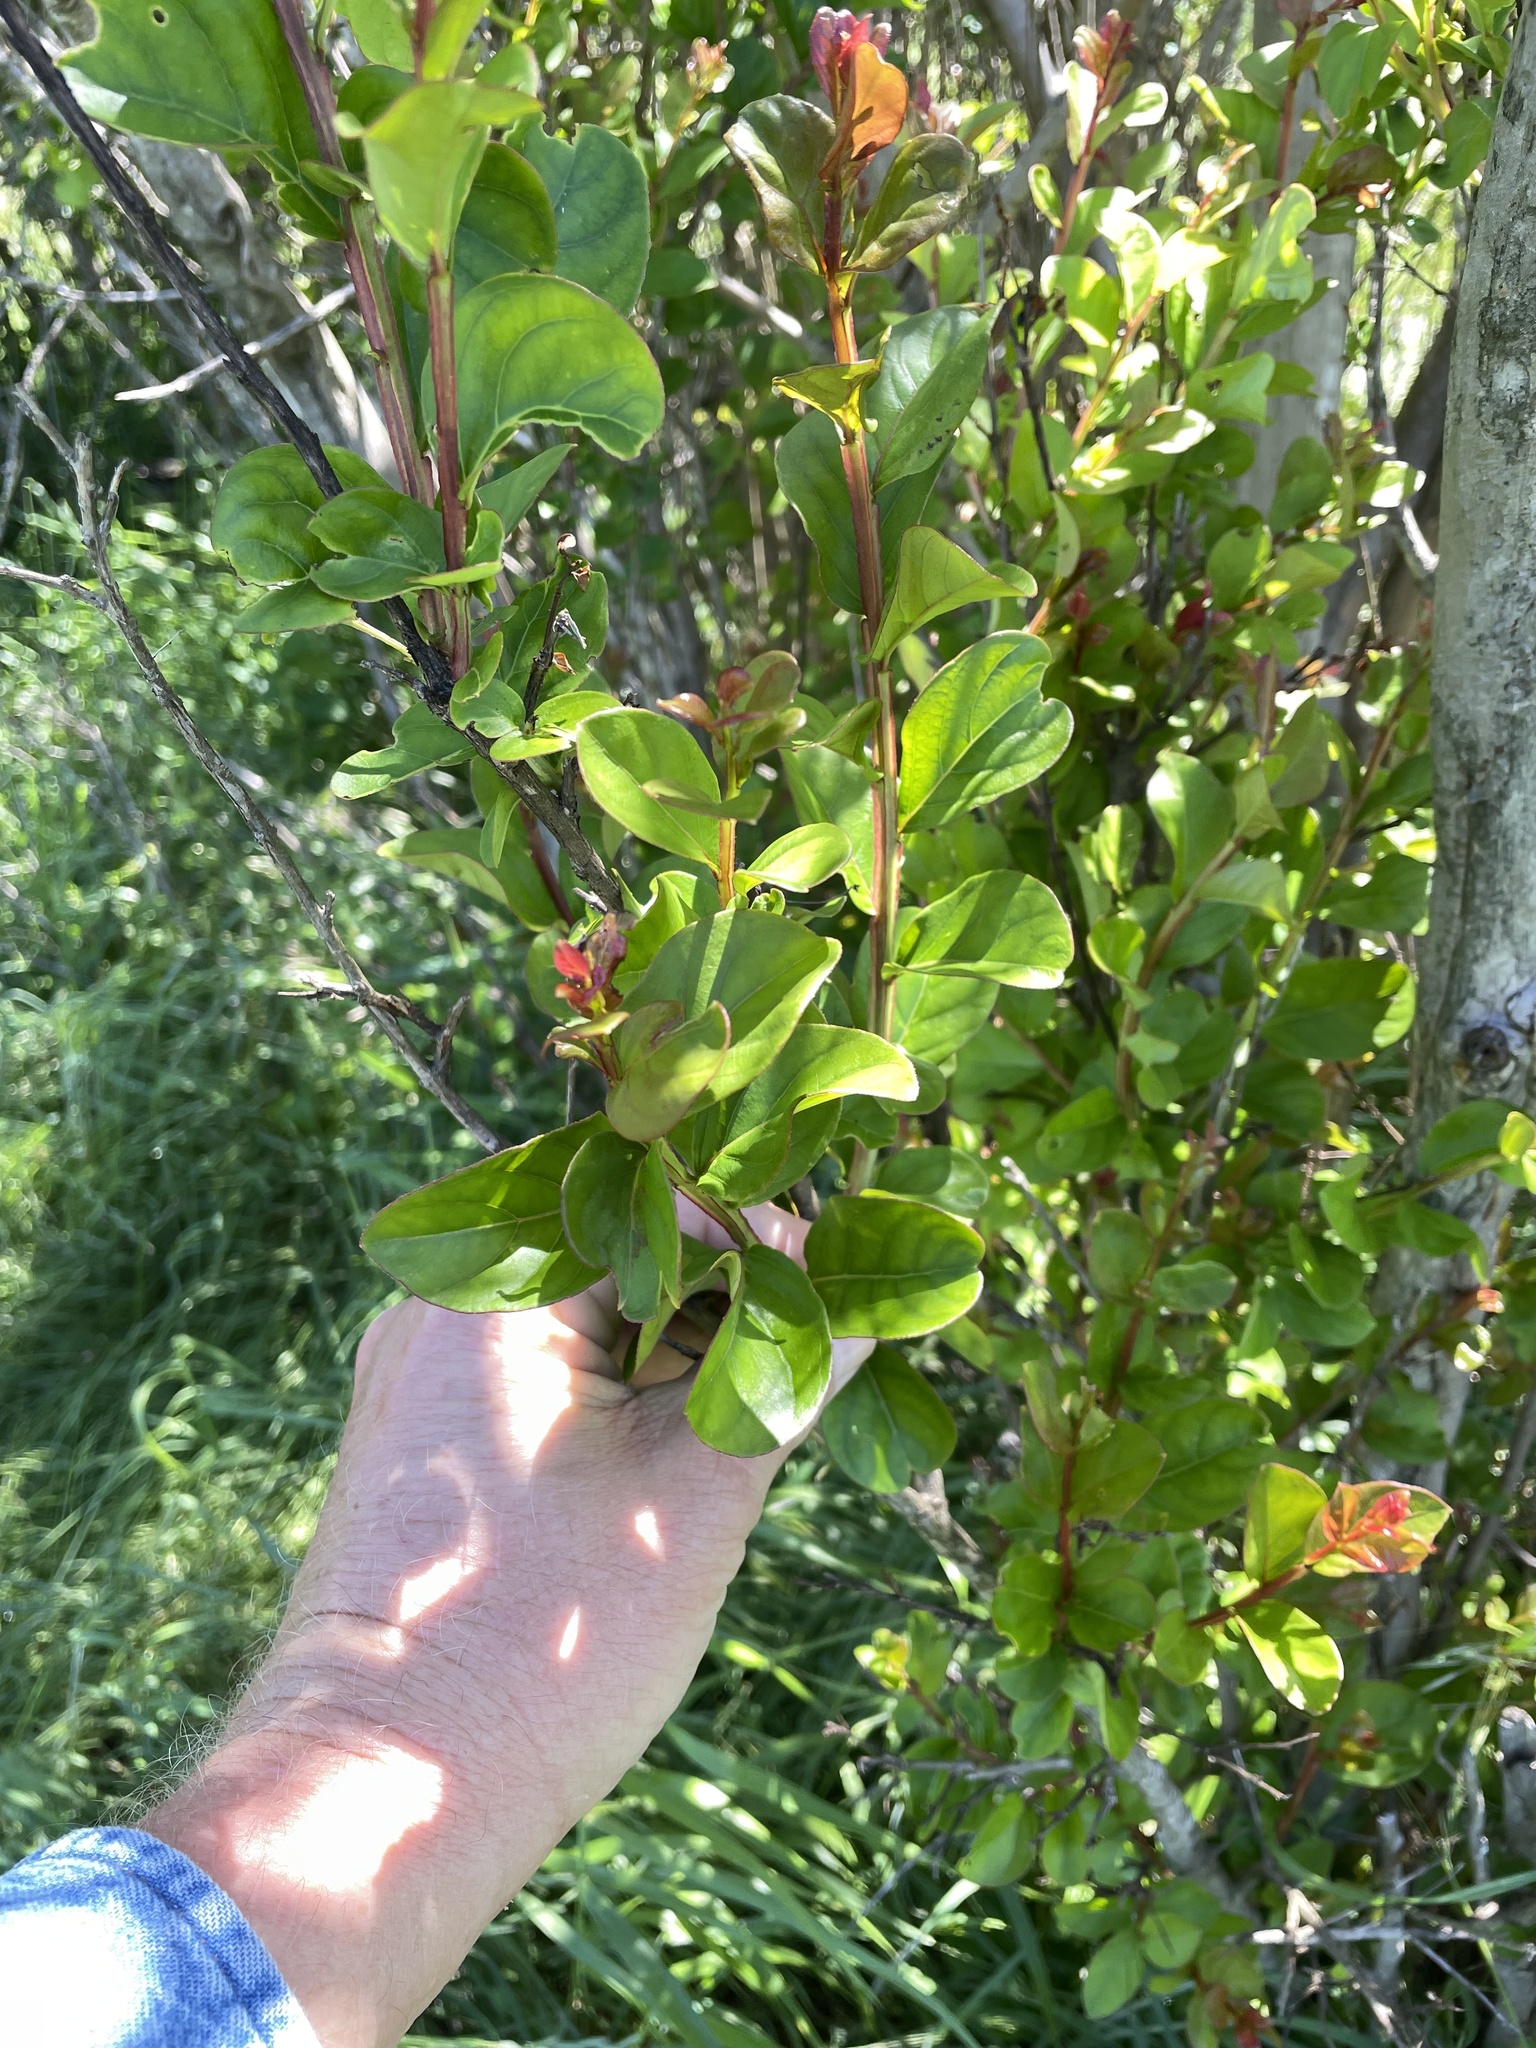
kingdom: Plantae
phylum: Tracheophyta
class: Magnoliopsida
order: Myrtales
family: Lythraceae
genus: Lagerstroemia
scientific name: Lagerstroemia indica
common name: Crape-myrtle
